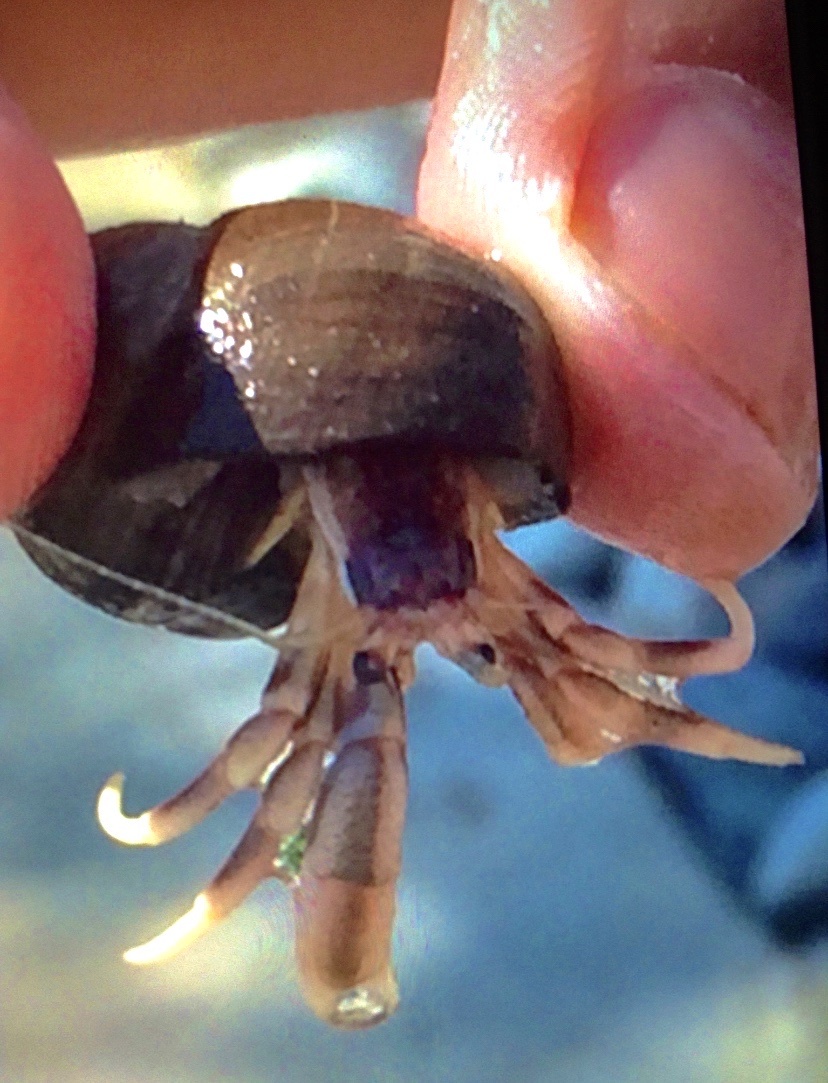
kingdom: Animalia
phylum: Arthropoda
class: Malacostraca
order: Decapoda
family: Paguridae
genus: Pagurus
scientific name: Pagurus longicarpus
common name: Long-armed hermit crab
